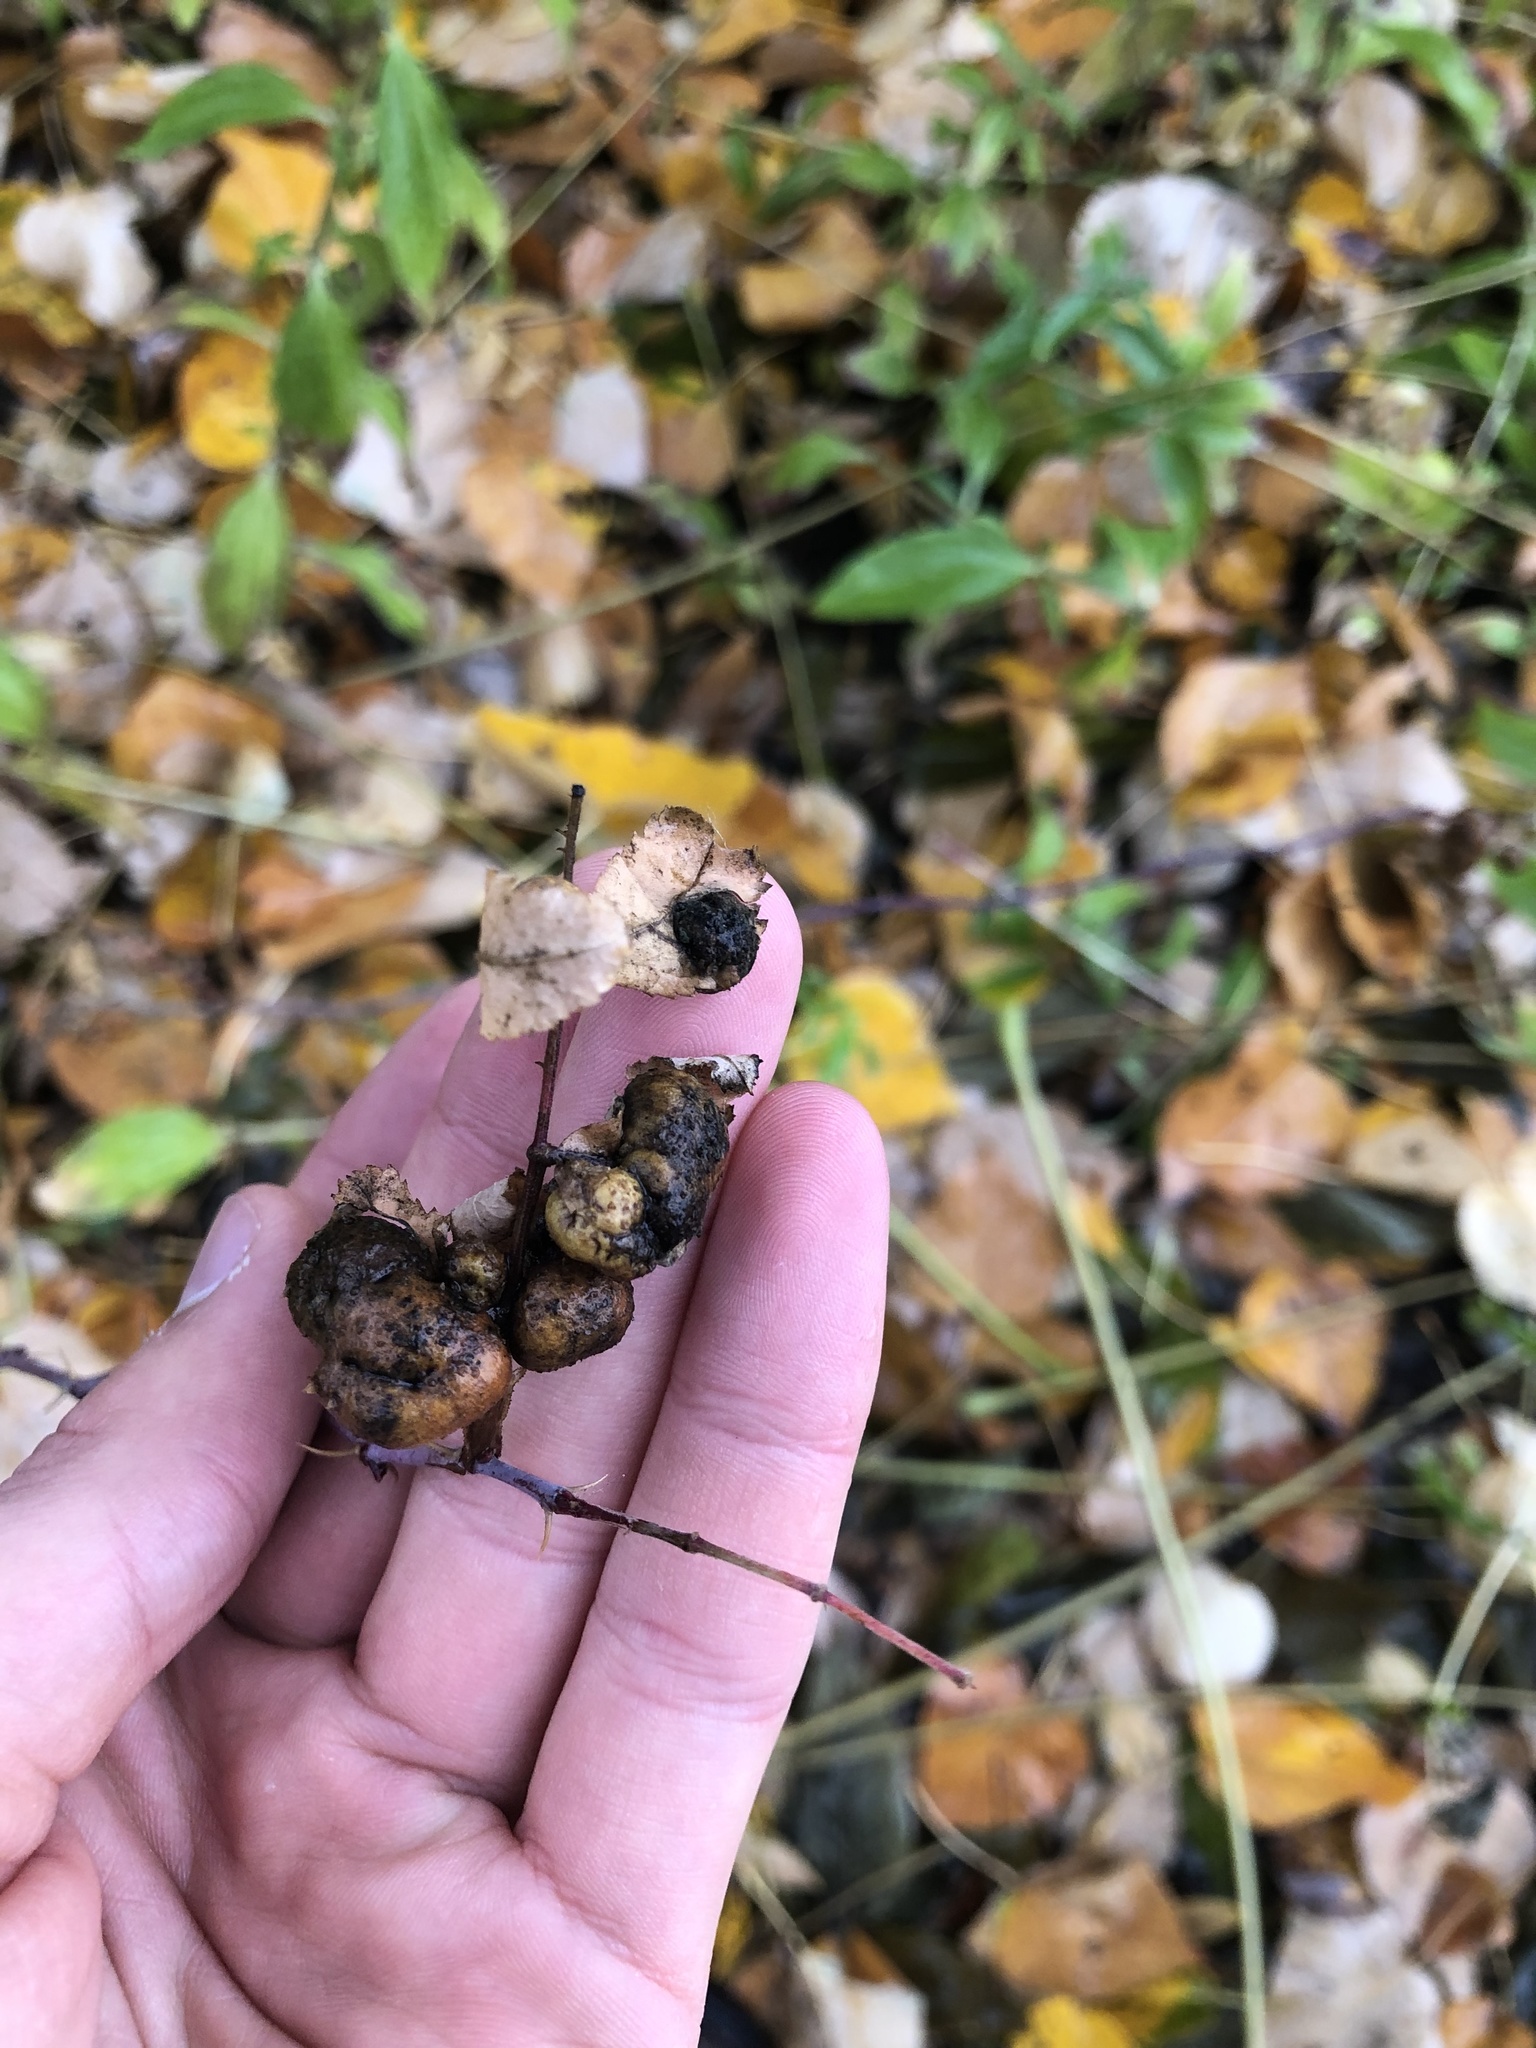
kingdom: Animalia
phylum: Arthropoda
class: Insecta
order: Hymenoptera
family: Cynipidae
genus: Diplolepis
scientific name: Diplolepis variabilis
